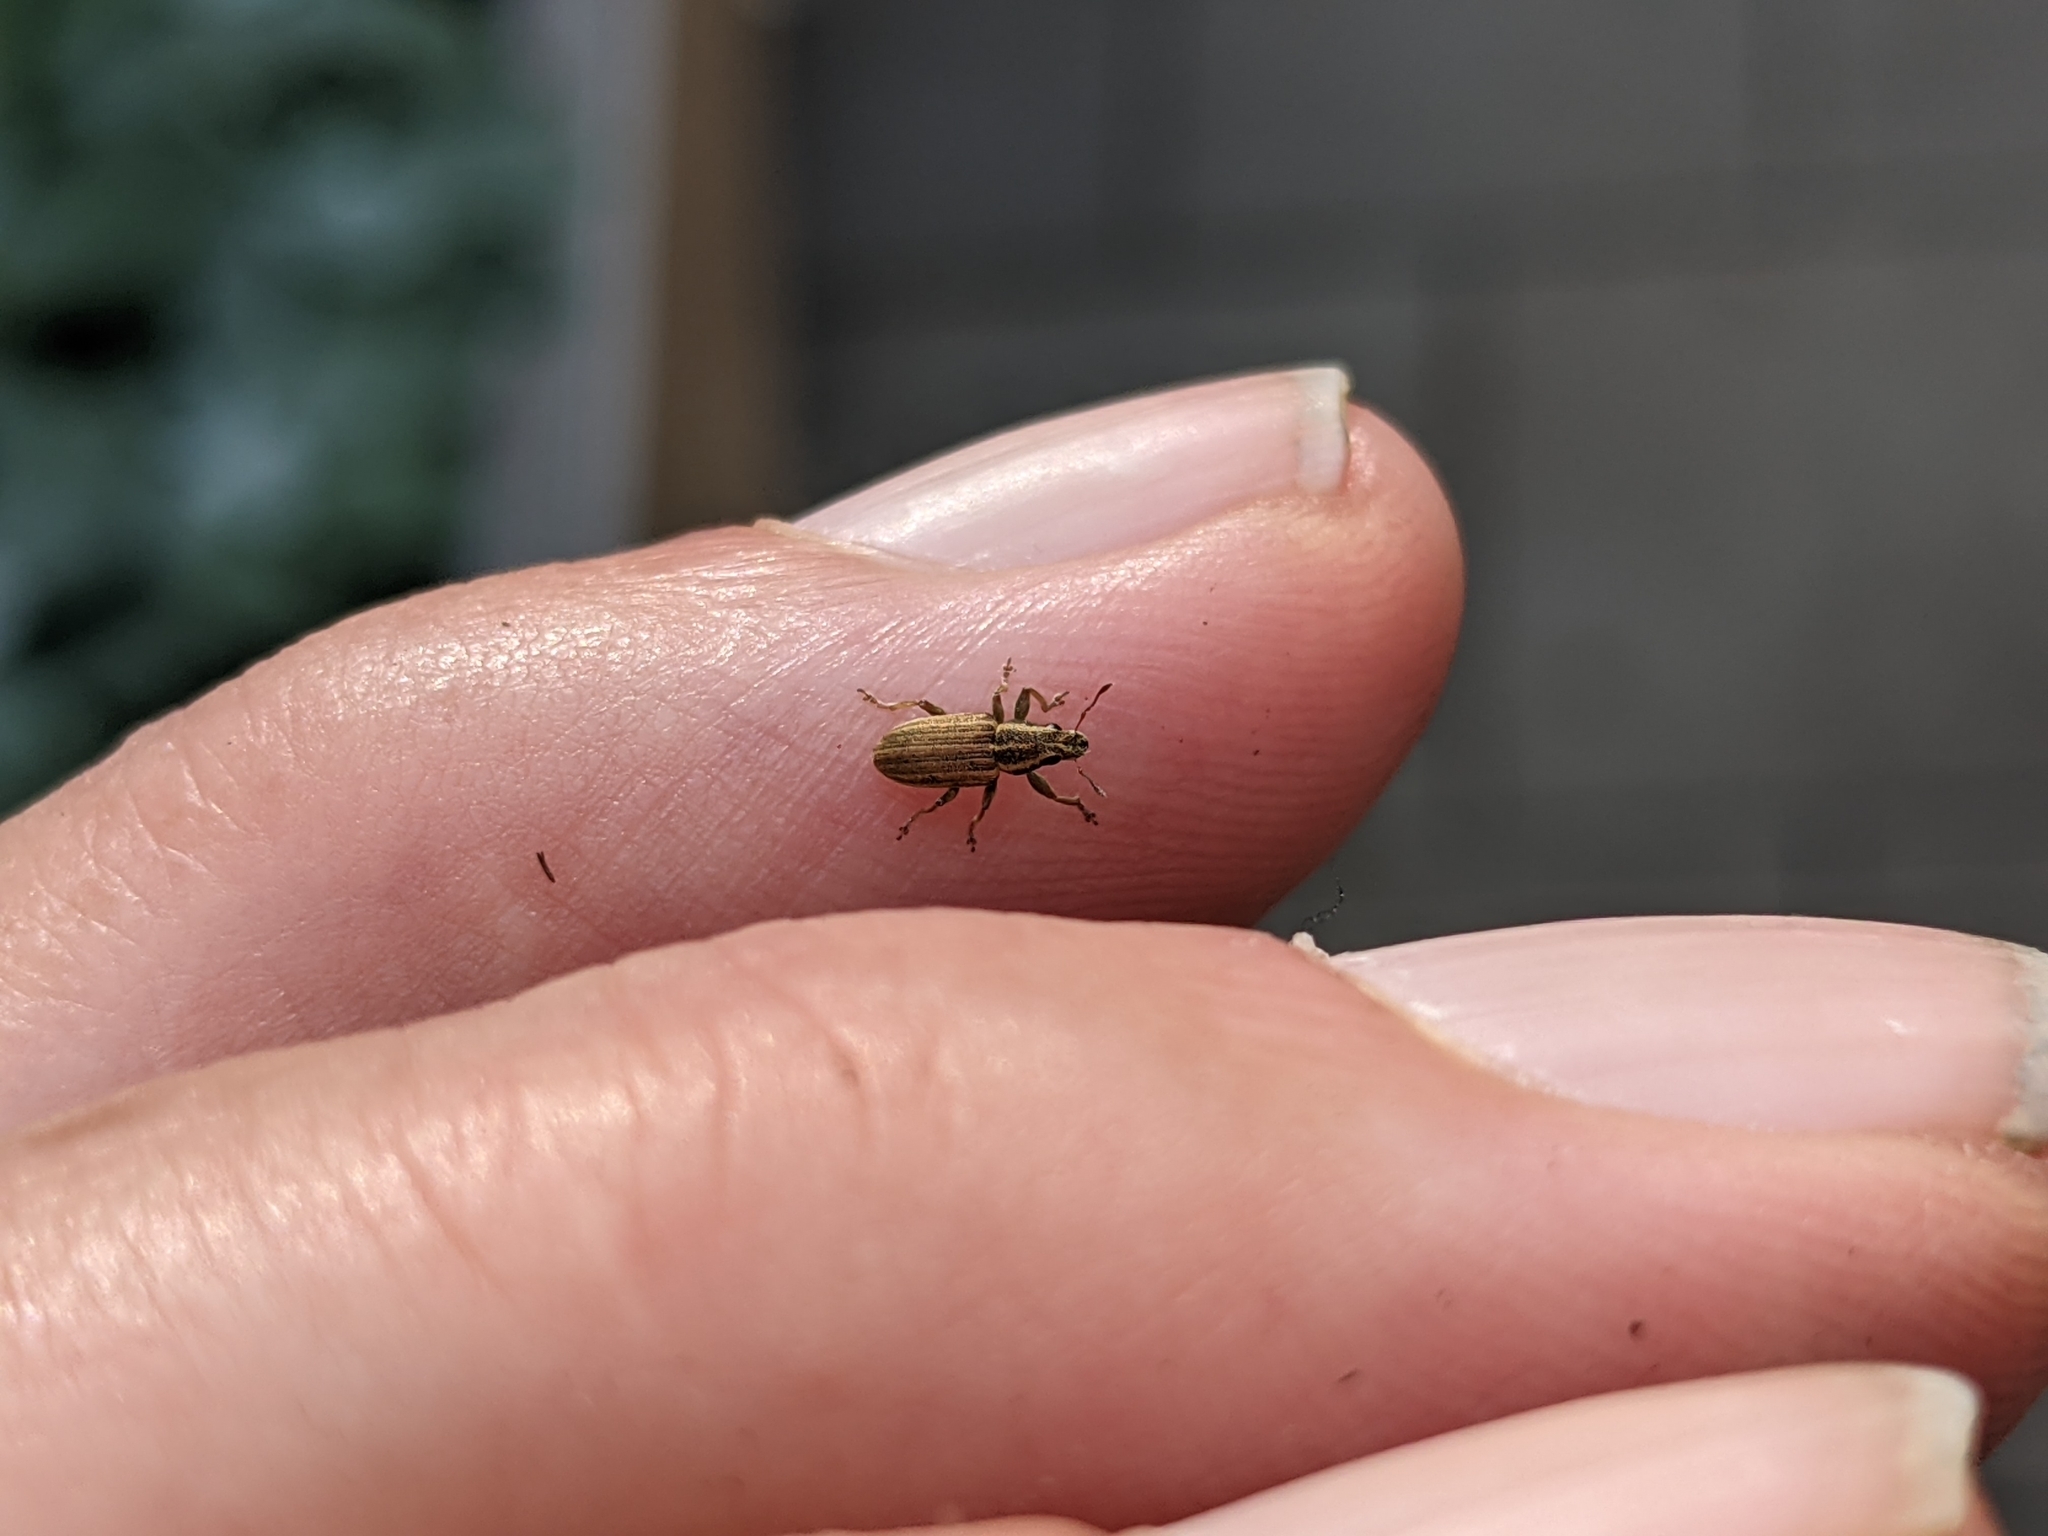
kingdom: Animalia
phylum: Arthropoda
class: Insecta
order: Coleoptera
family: Curculionidae
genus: Sitona
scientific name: Sitona lineatus
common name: Weevil
